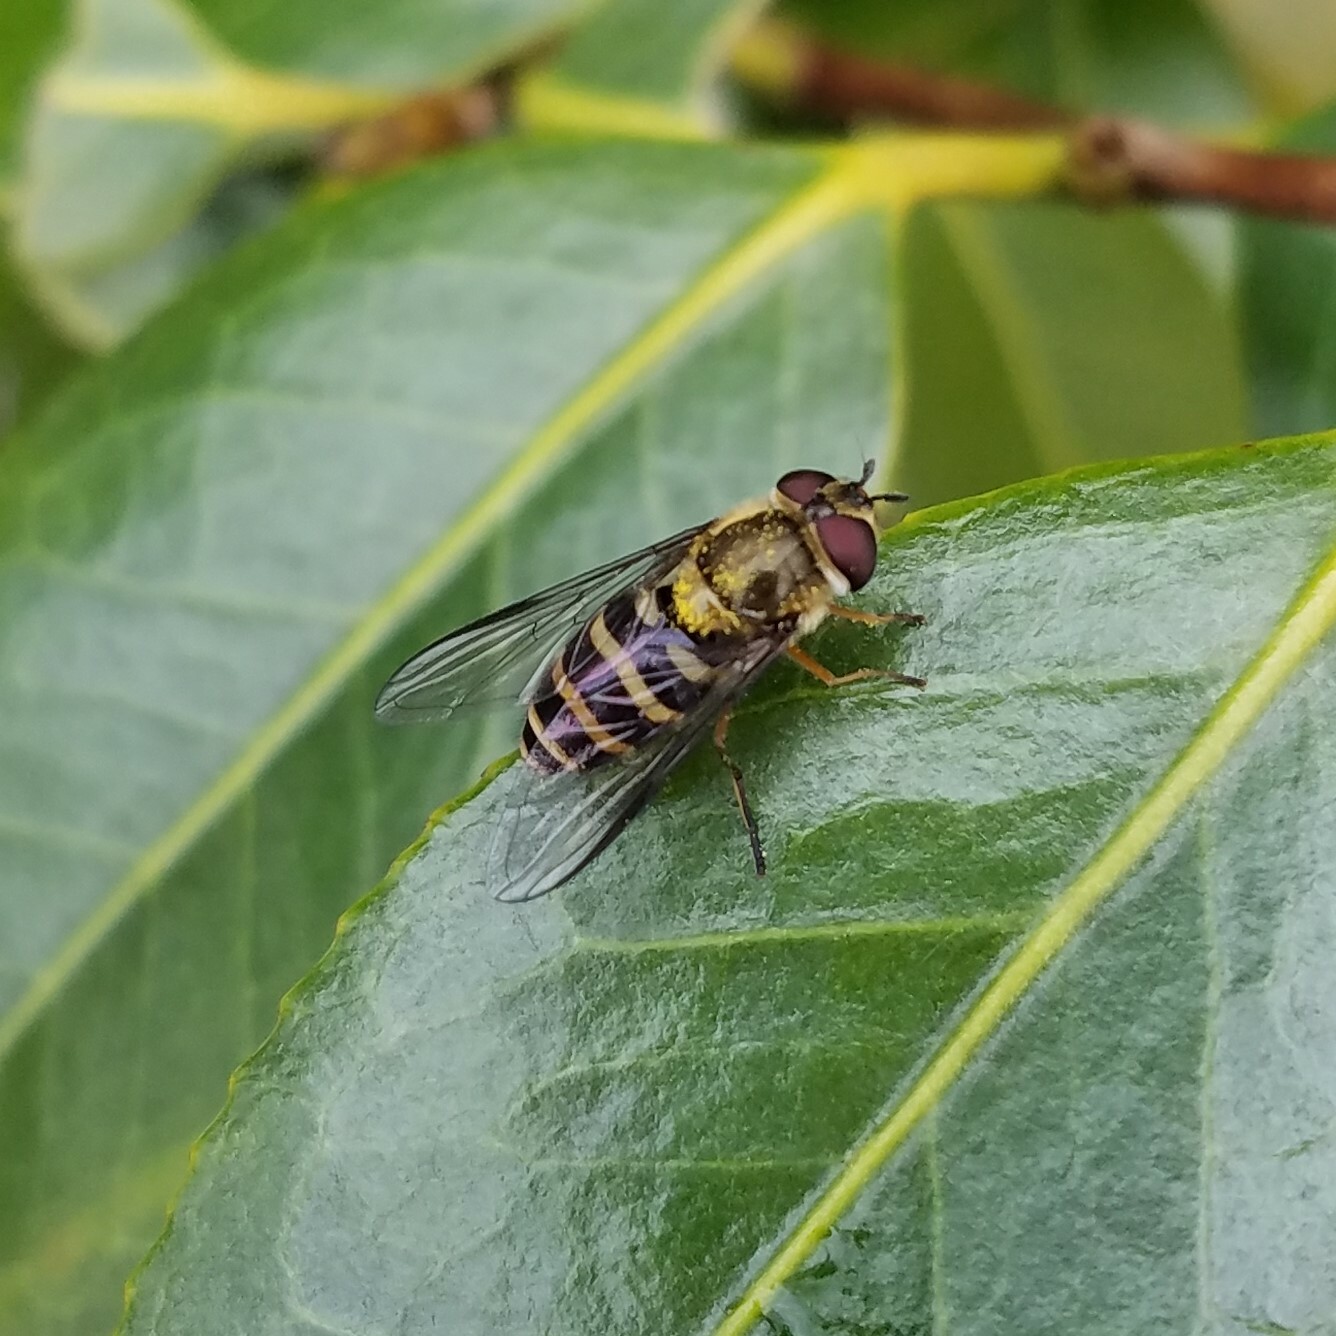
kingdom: Animalia
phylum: Arthropoda
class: Insecta
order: Diptera
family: Syrphidae
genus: Syrphus
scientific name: Syrphus
